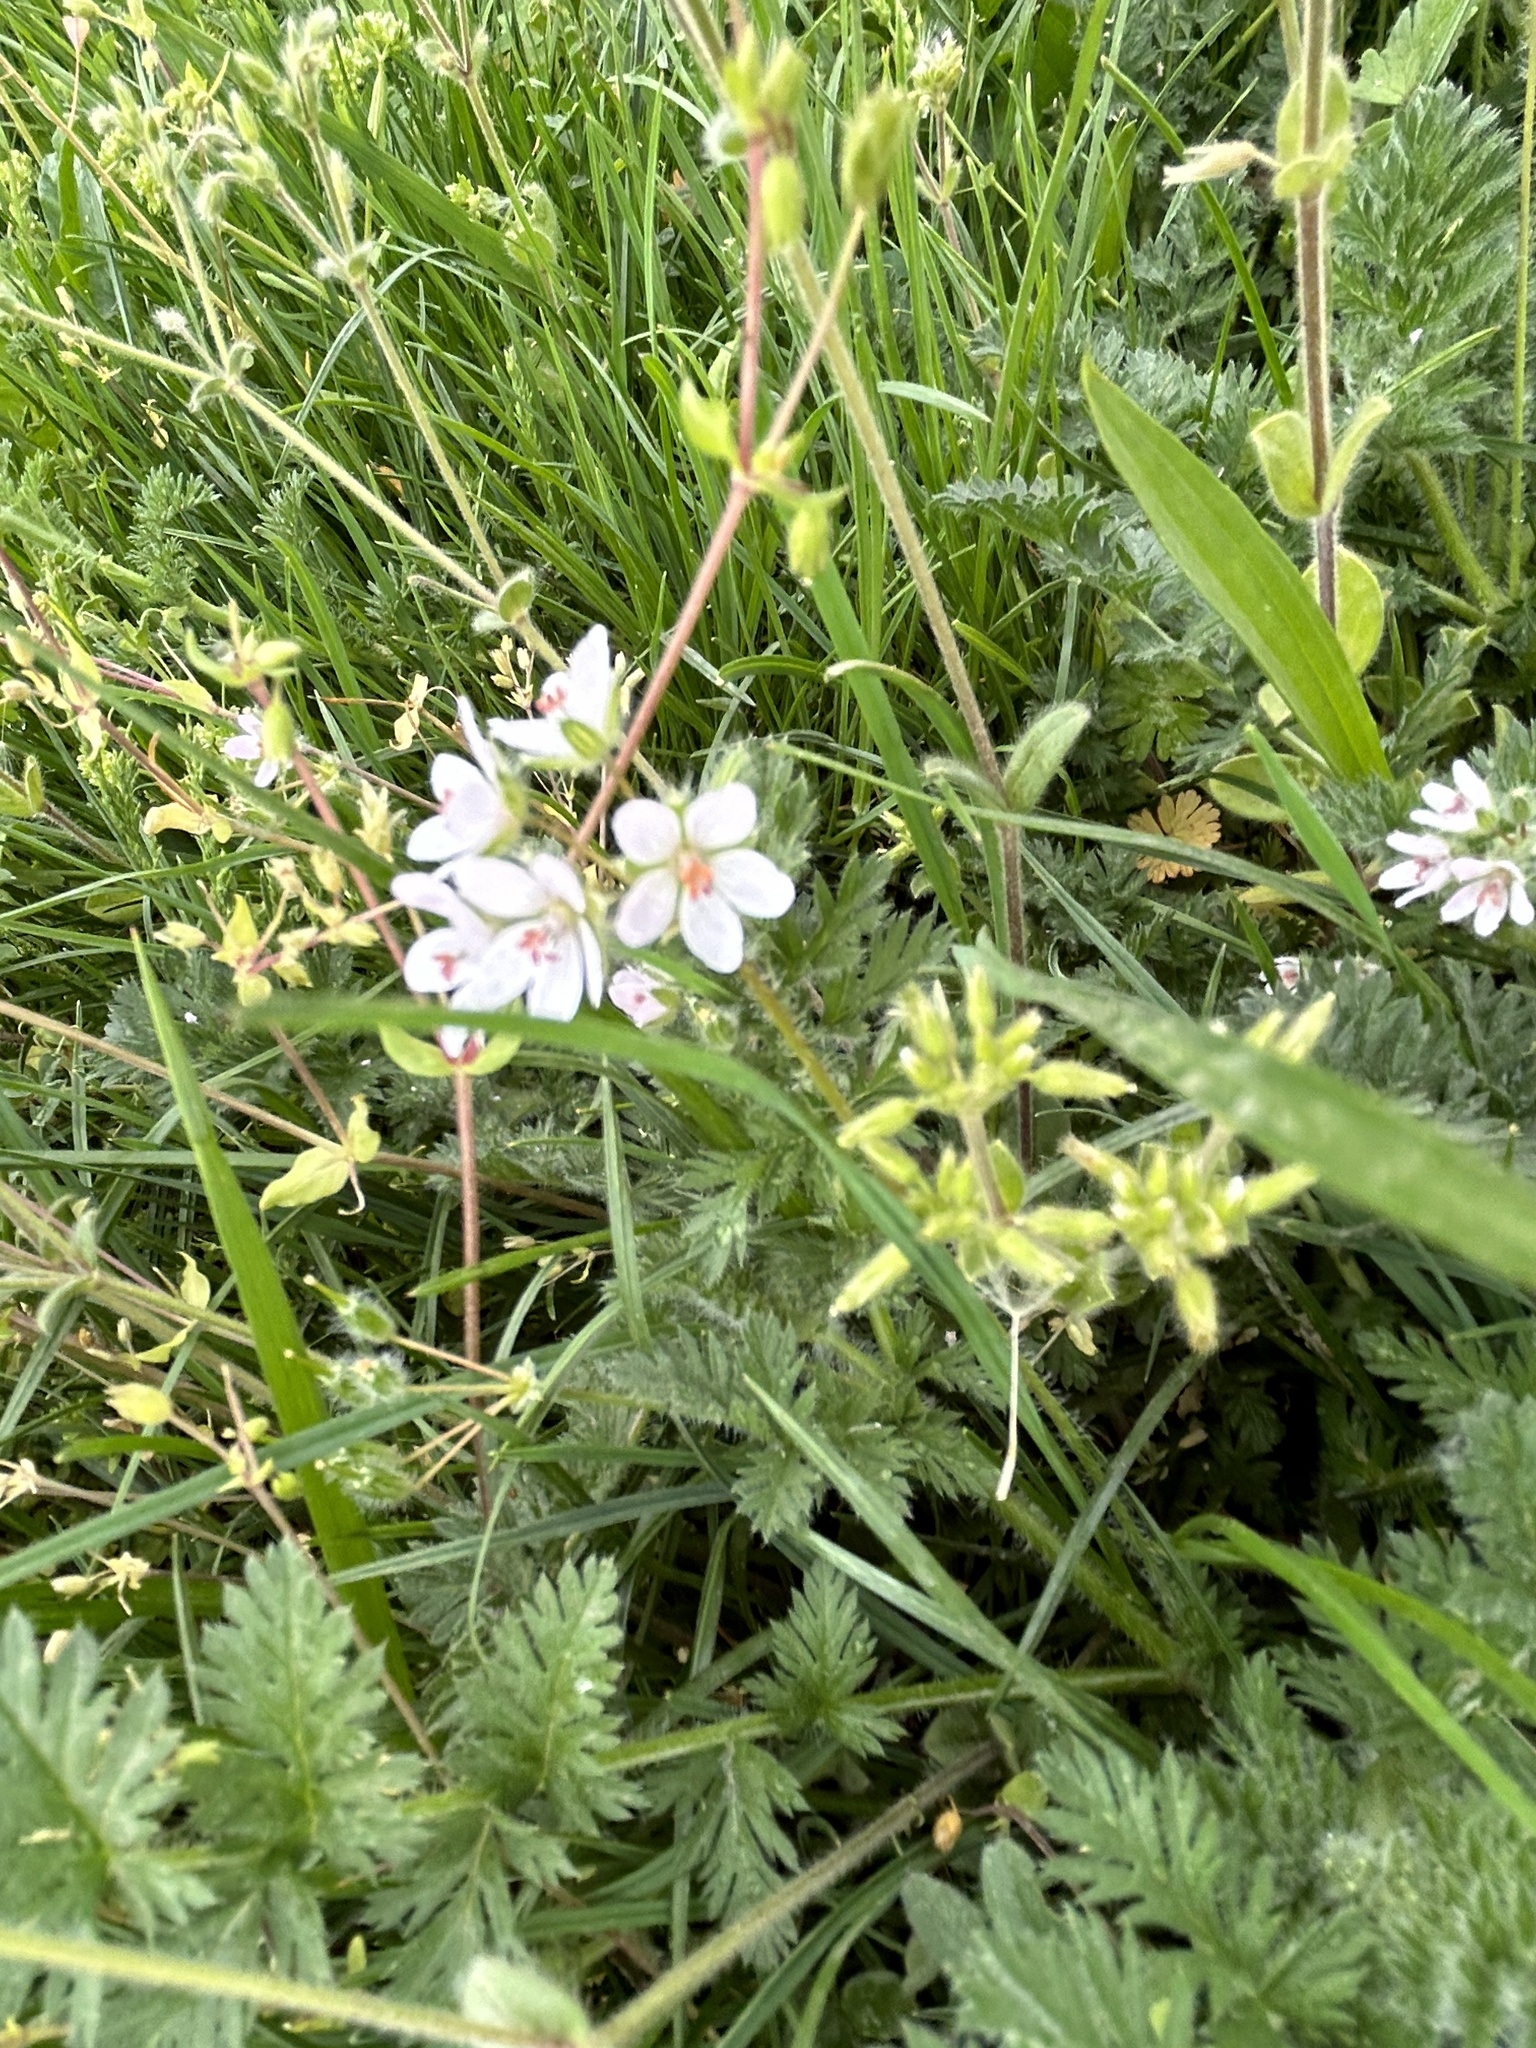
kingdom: Plantae
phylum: Tracheophyta
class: Magnoliopsida
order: Geraniales
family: Geraniaceae
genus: Erodium
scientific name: Erodium cicutarium
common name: Common stork's-bill
